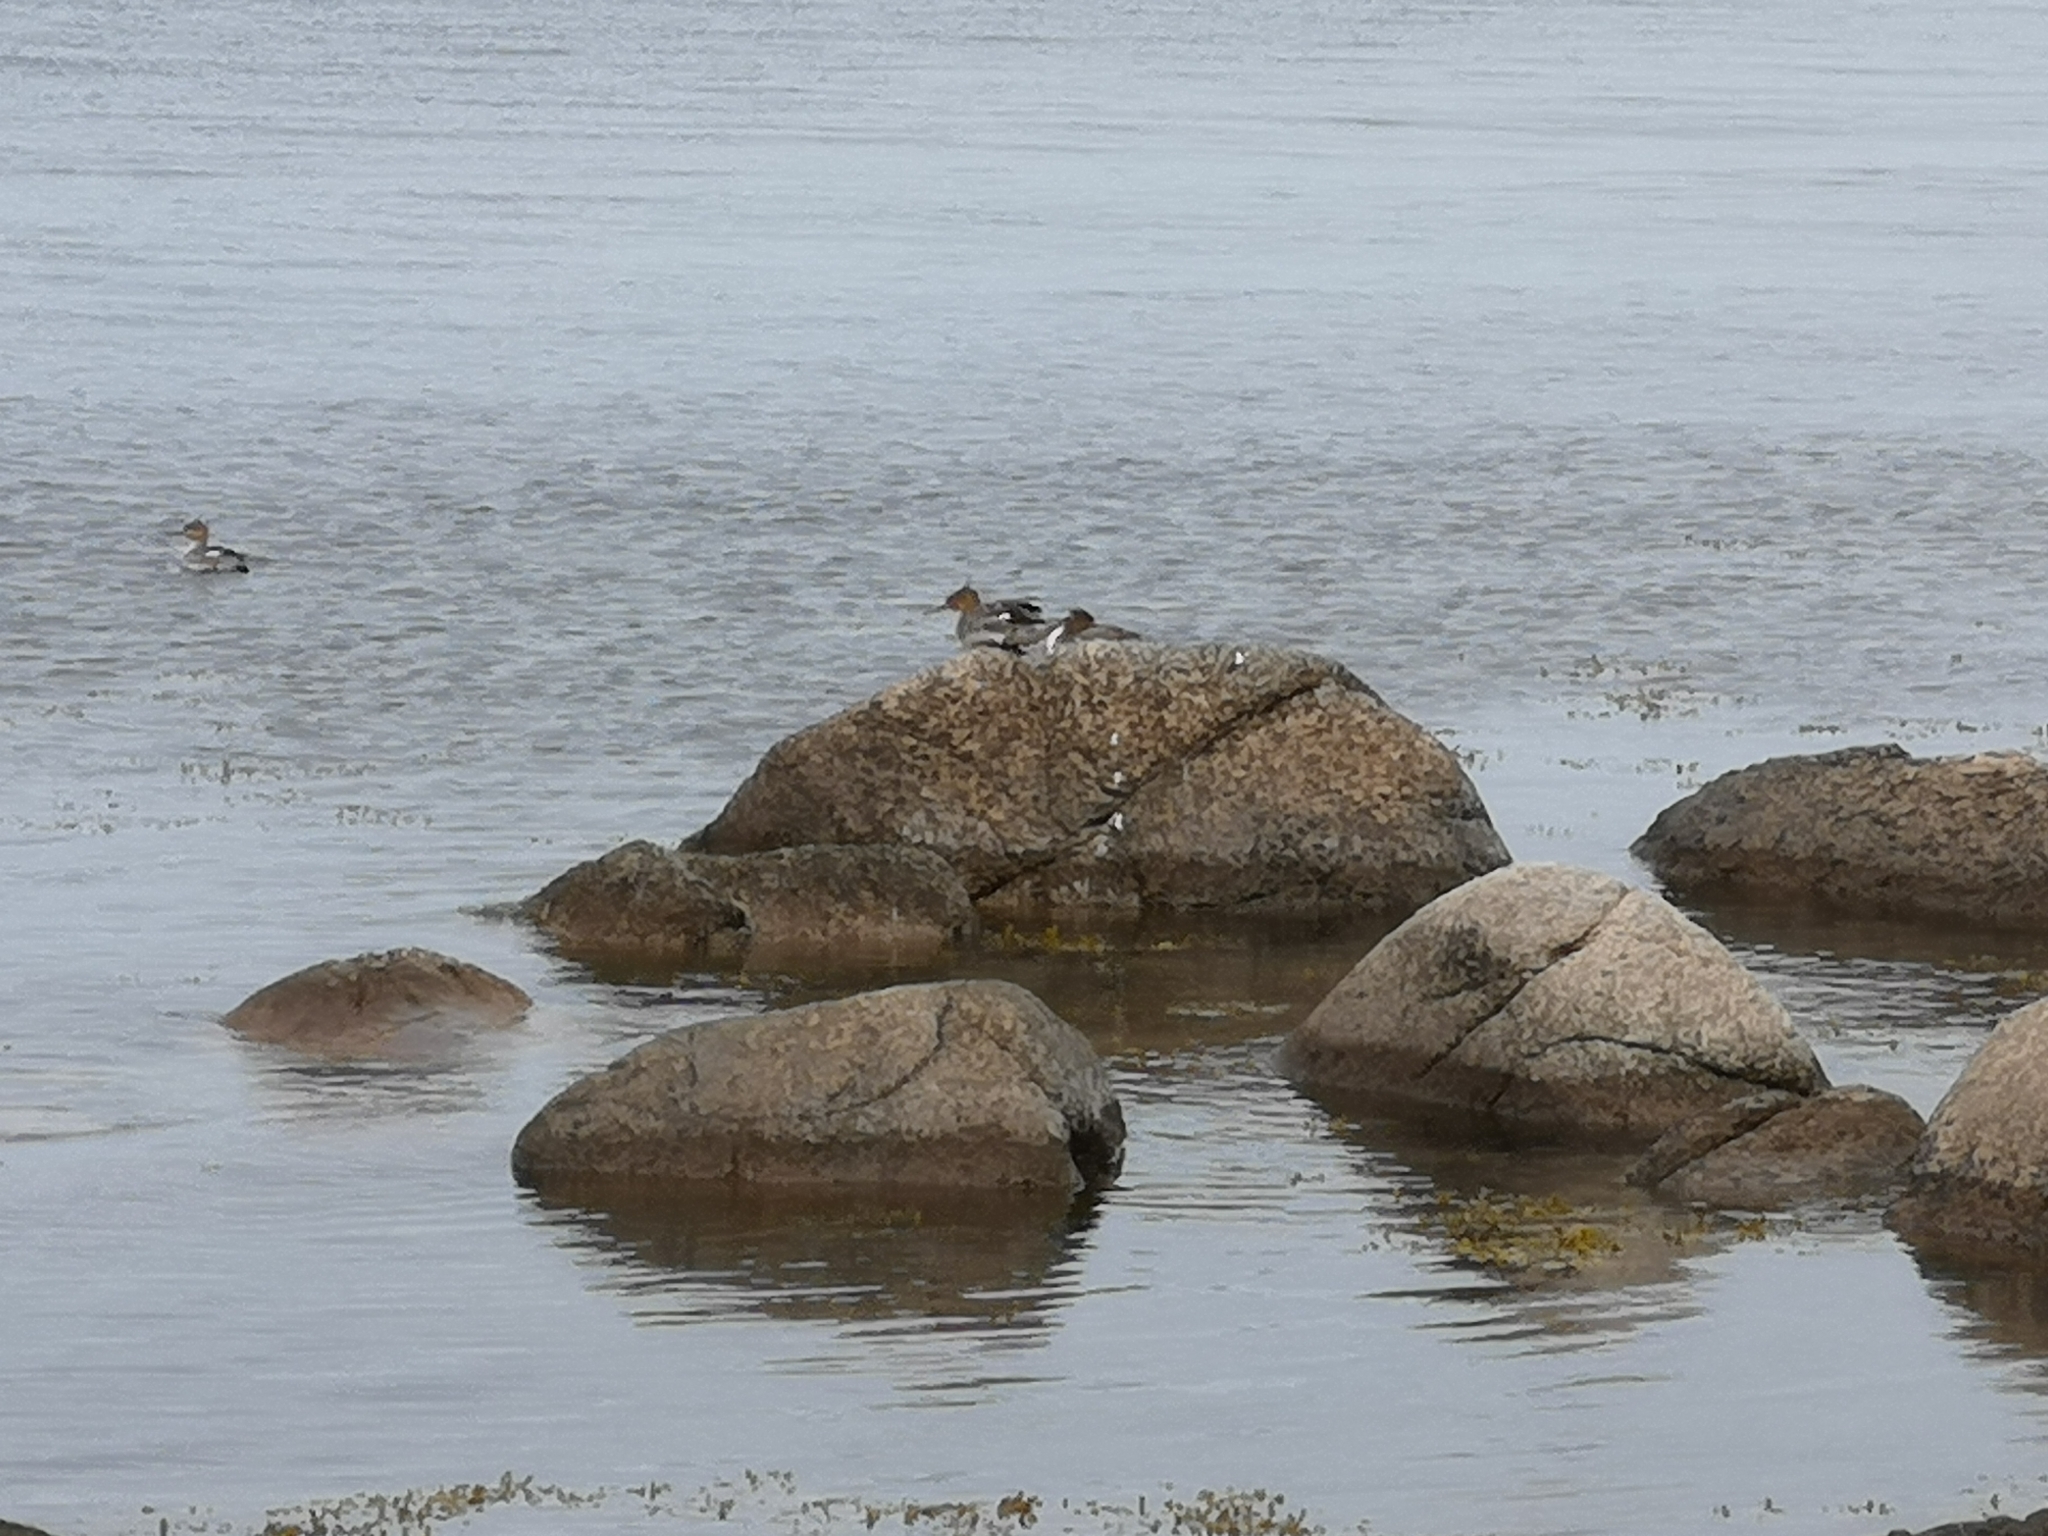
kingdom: Animalia
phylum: Chordata
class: Aves
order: Anseriformes
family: Anatidae
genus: Mergus
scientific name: Mergus serrator
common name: Red-breasted merganser
